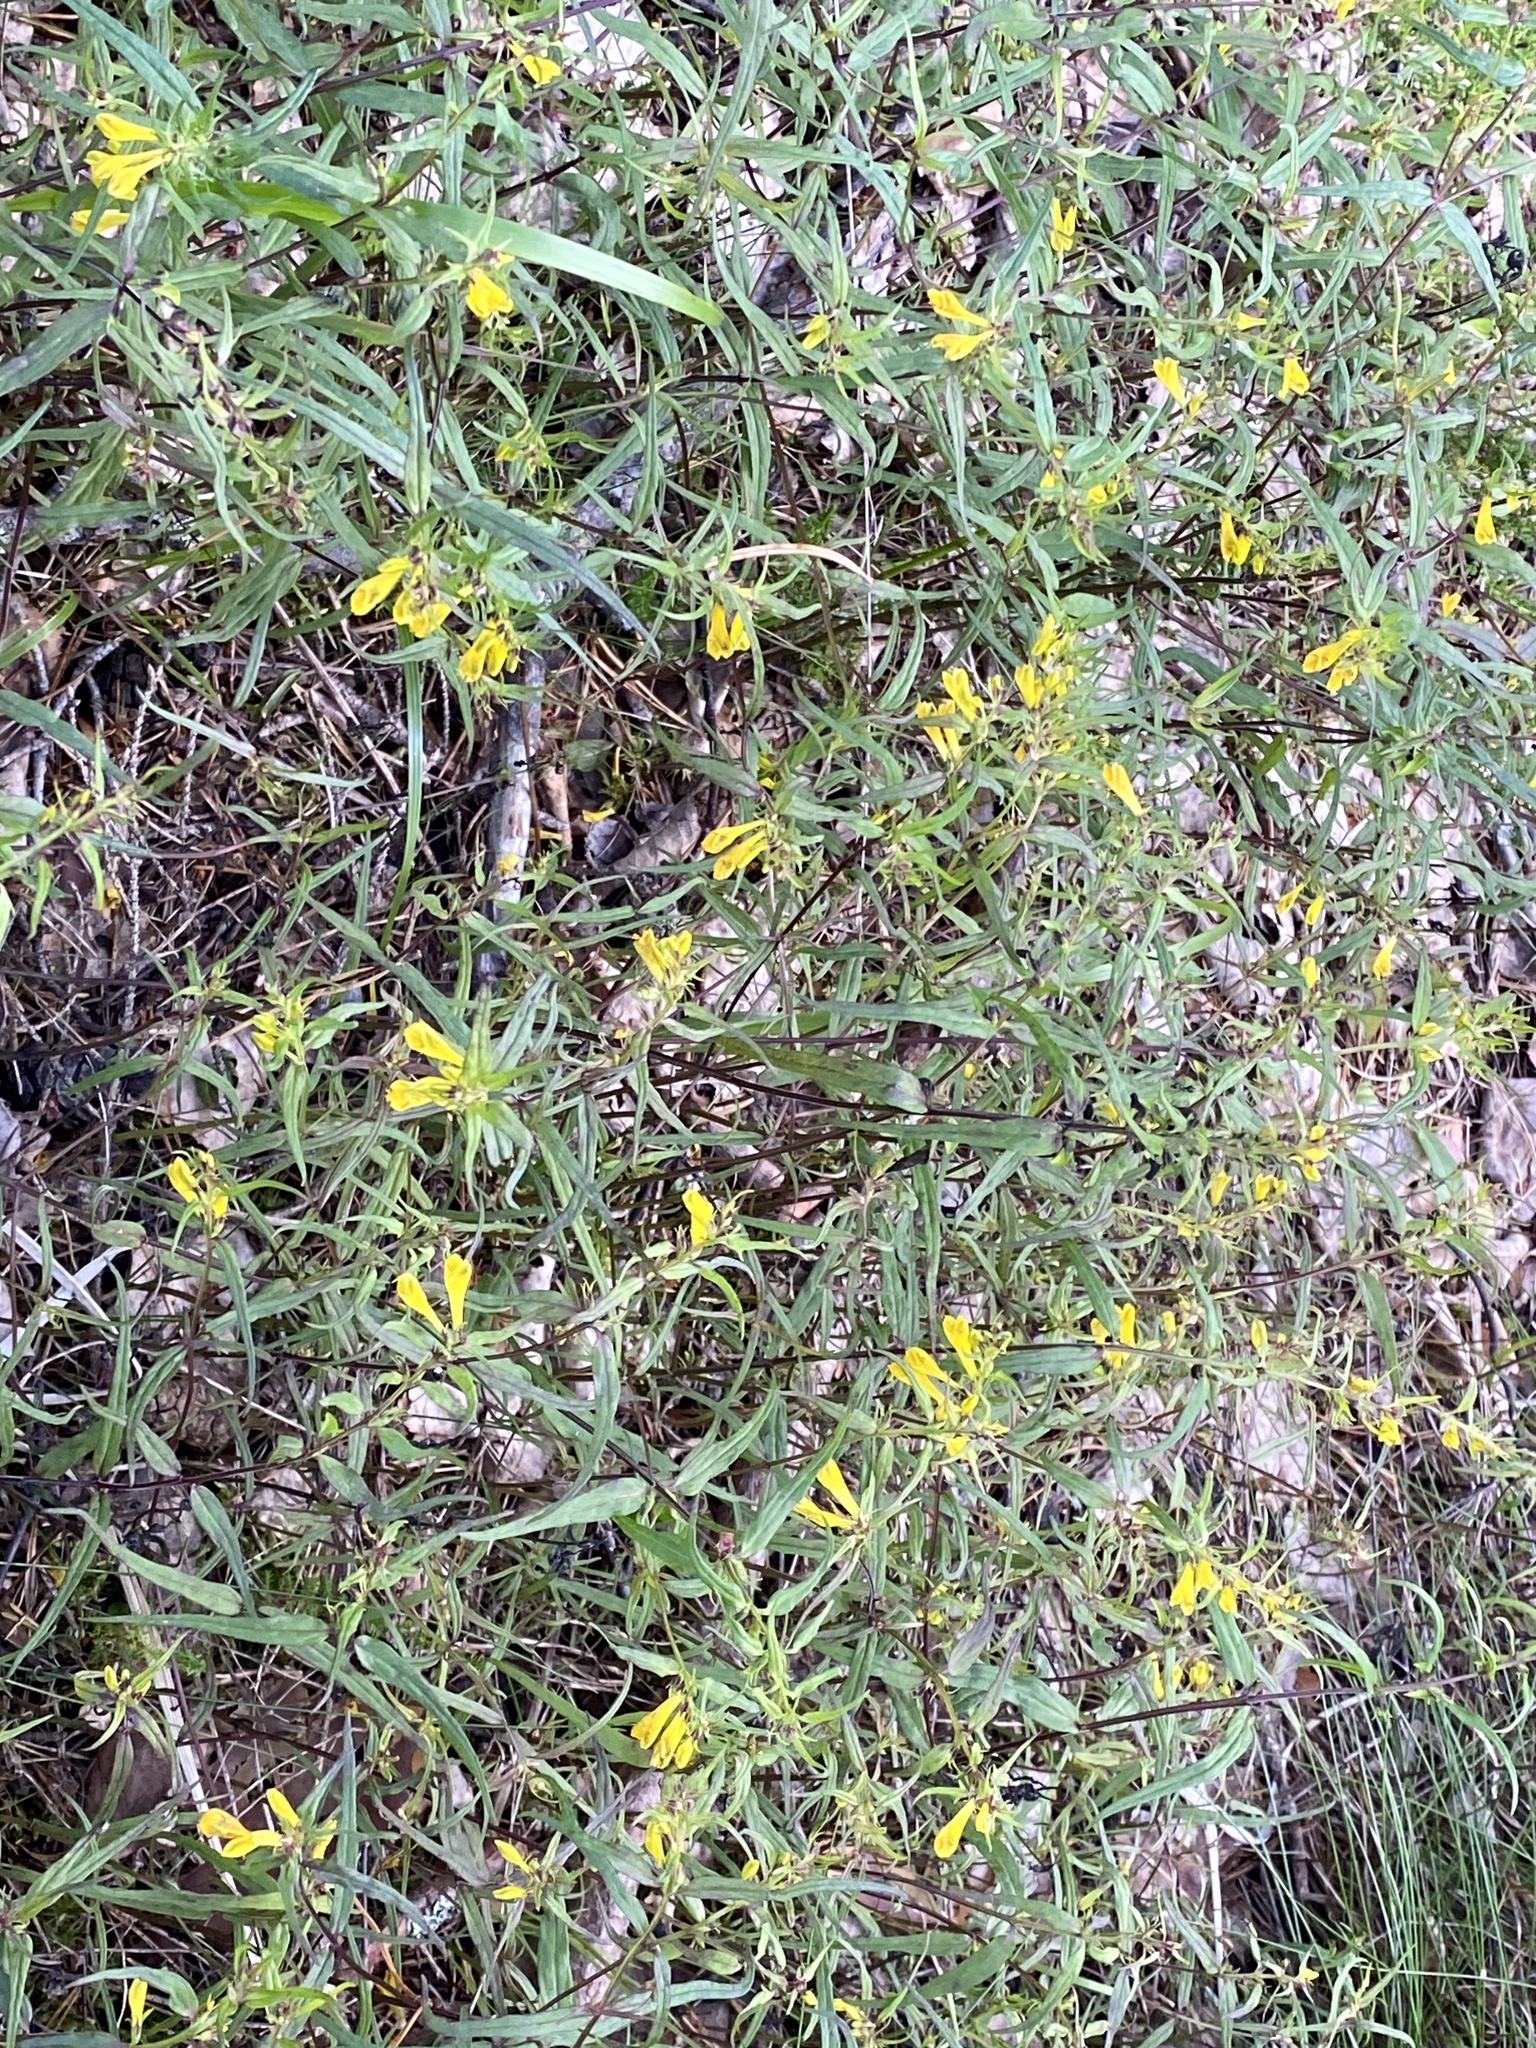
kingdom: Plantae
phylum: Tracheophyta
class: Magnoliopsida
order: Lamiales
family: Orobanchaceae
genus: Melampyrum
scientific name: Melampyrum pratense
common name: Common cow-wheat
